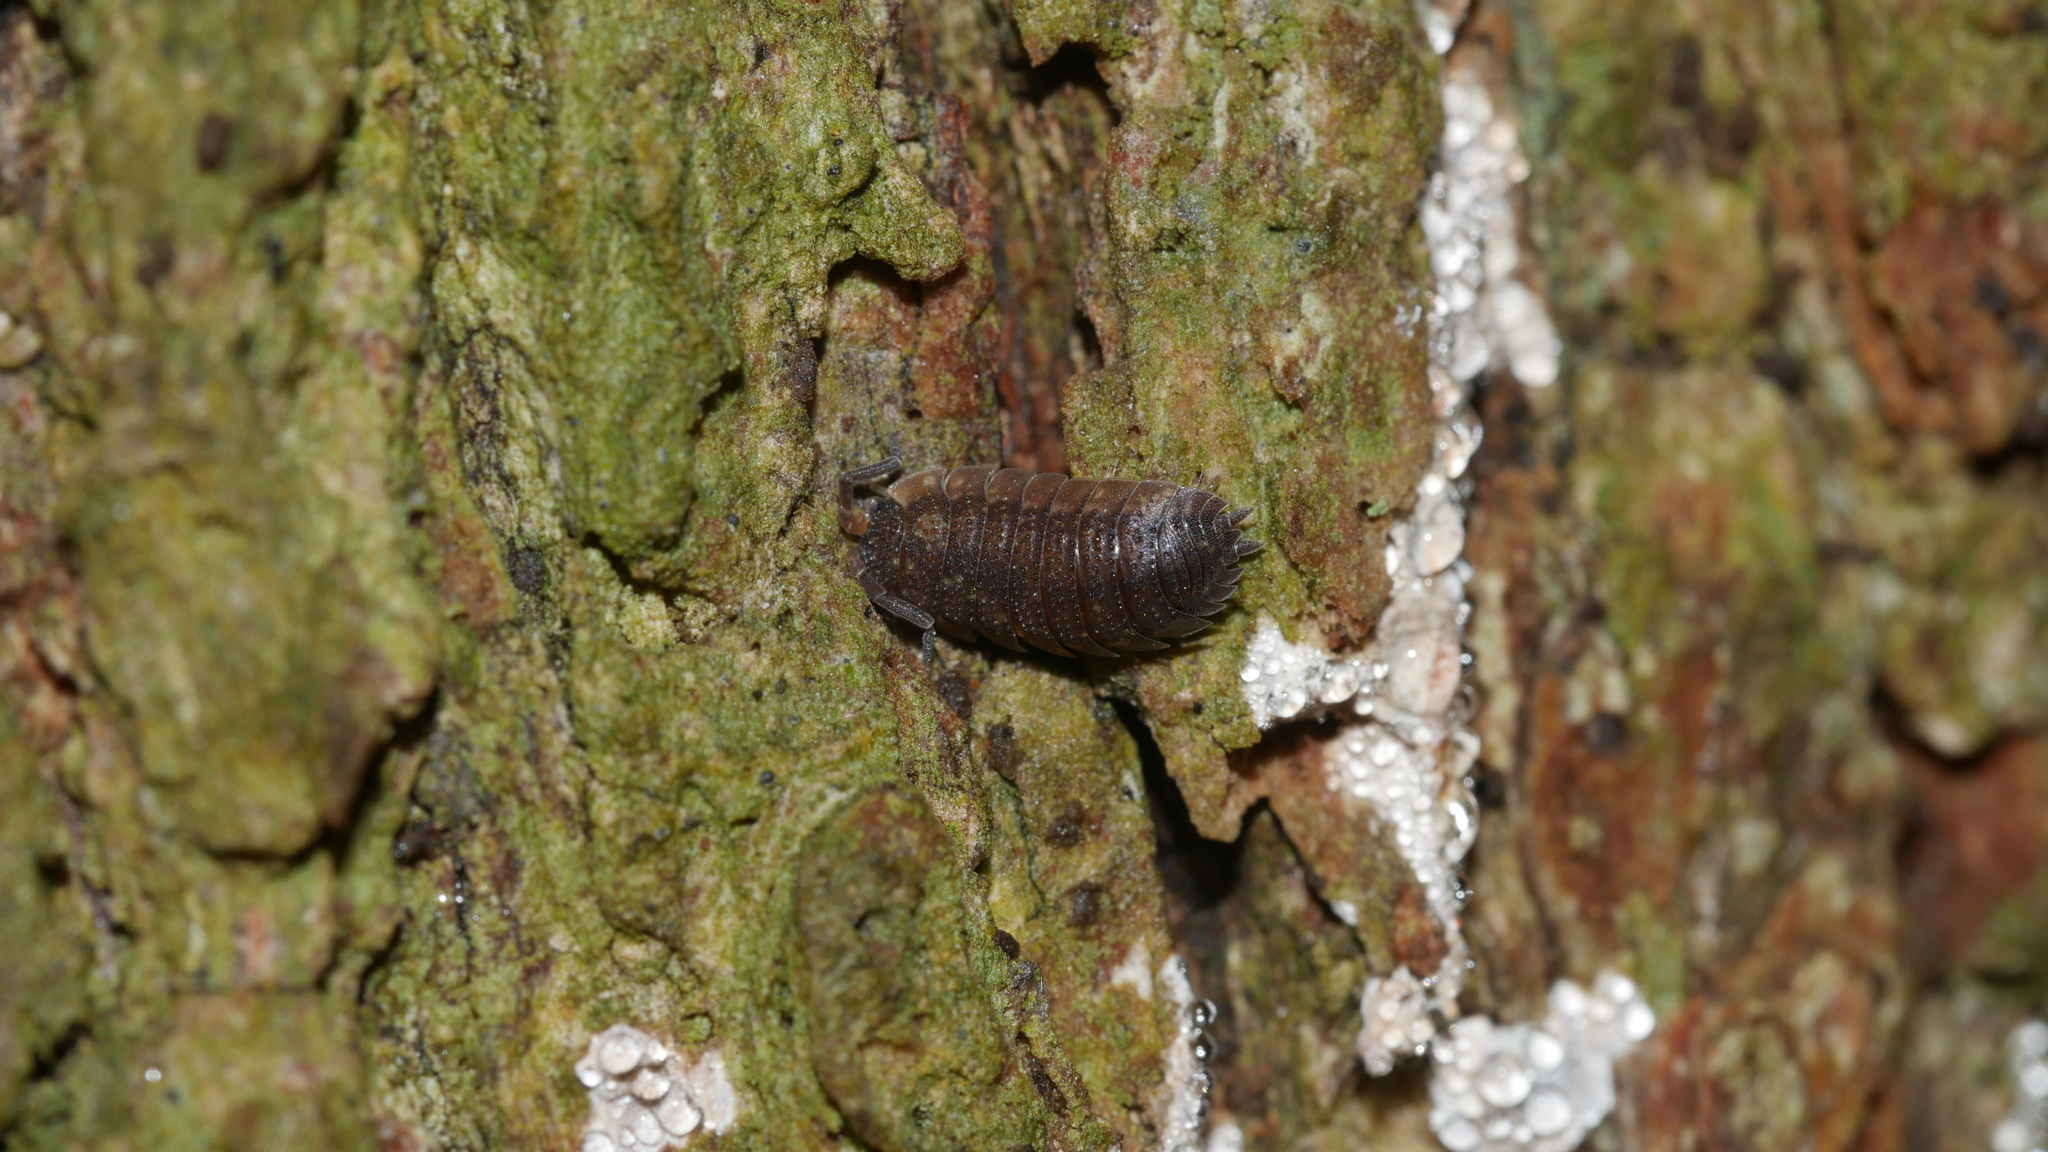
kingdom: Animalia
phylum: Arthropoda
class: Malacostraca
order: Isopoda
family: Porcellionidae
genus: Porcellio
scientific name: Porcellio scaber
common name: Common rough woodlouse
